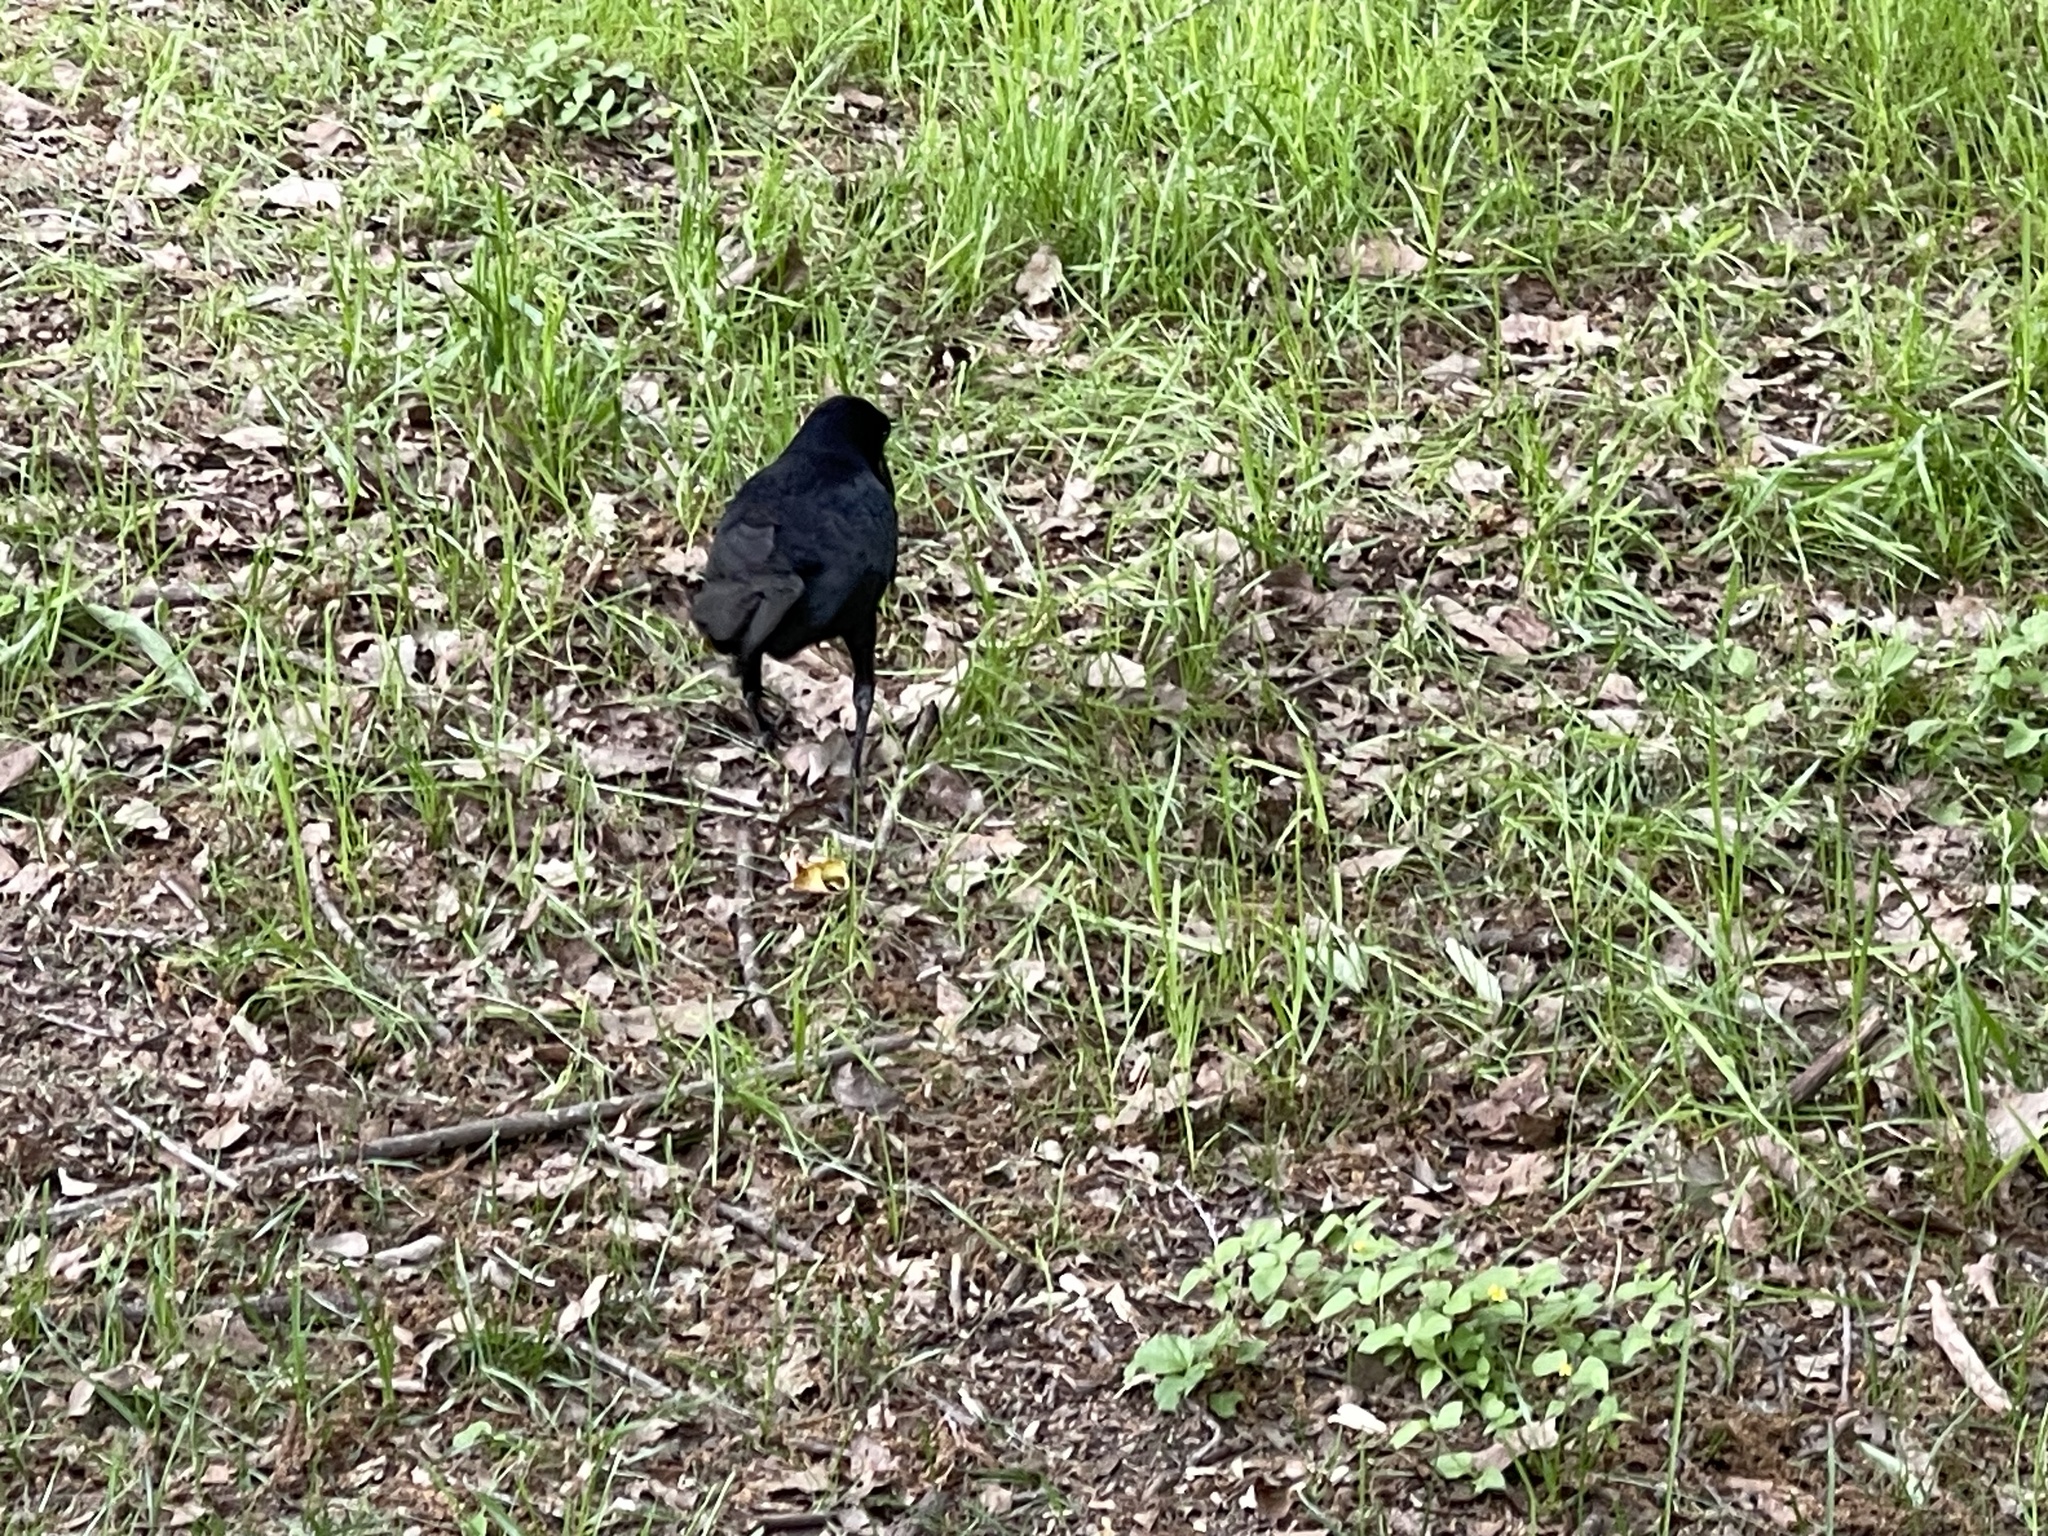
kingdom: Animalia
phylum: Chordata
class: Aves
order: Passeriformes
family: Icteridae
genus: Quiscalus
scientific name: Quiscalus mexicanus
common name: Great-tailed grackle
